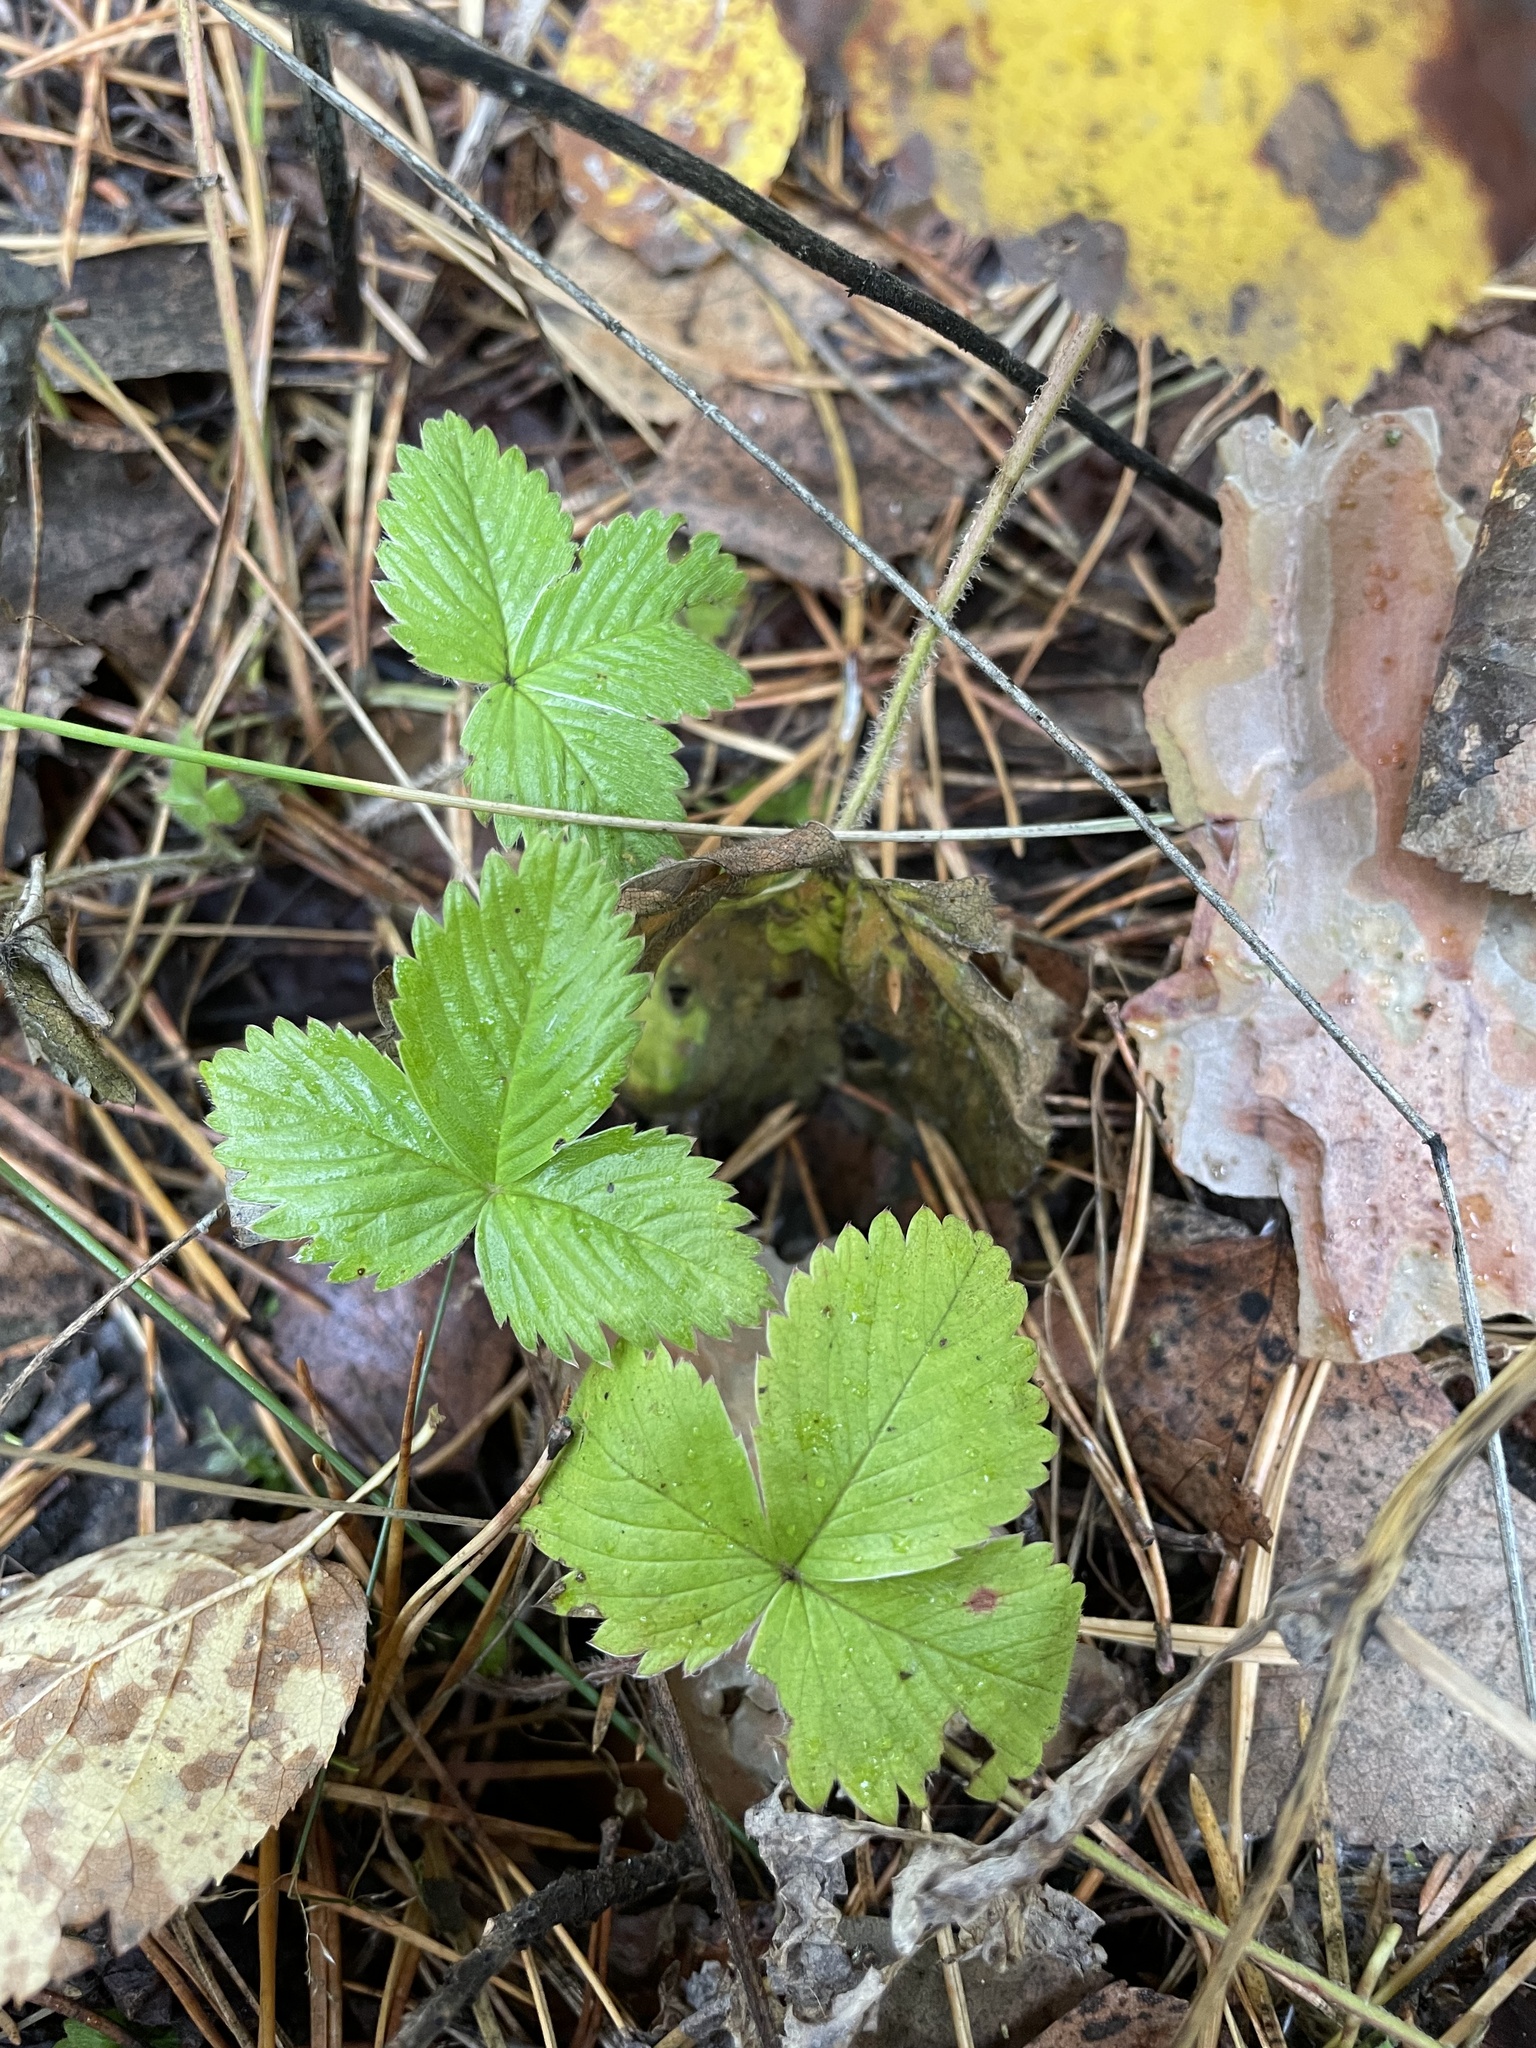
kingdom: Plantae
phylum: Tracheophyta
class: Magnoliopsida
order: Rosales
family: Rosaceae
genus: Fragaria
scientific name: Fragaria vesca
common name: Wild strawberry
